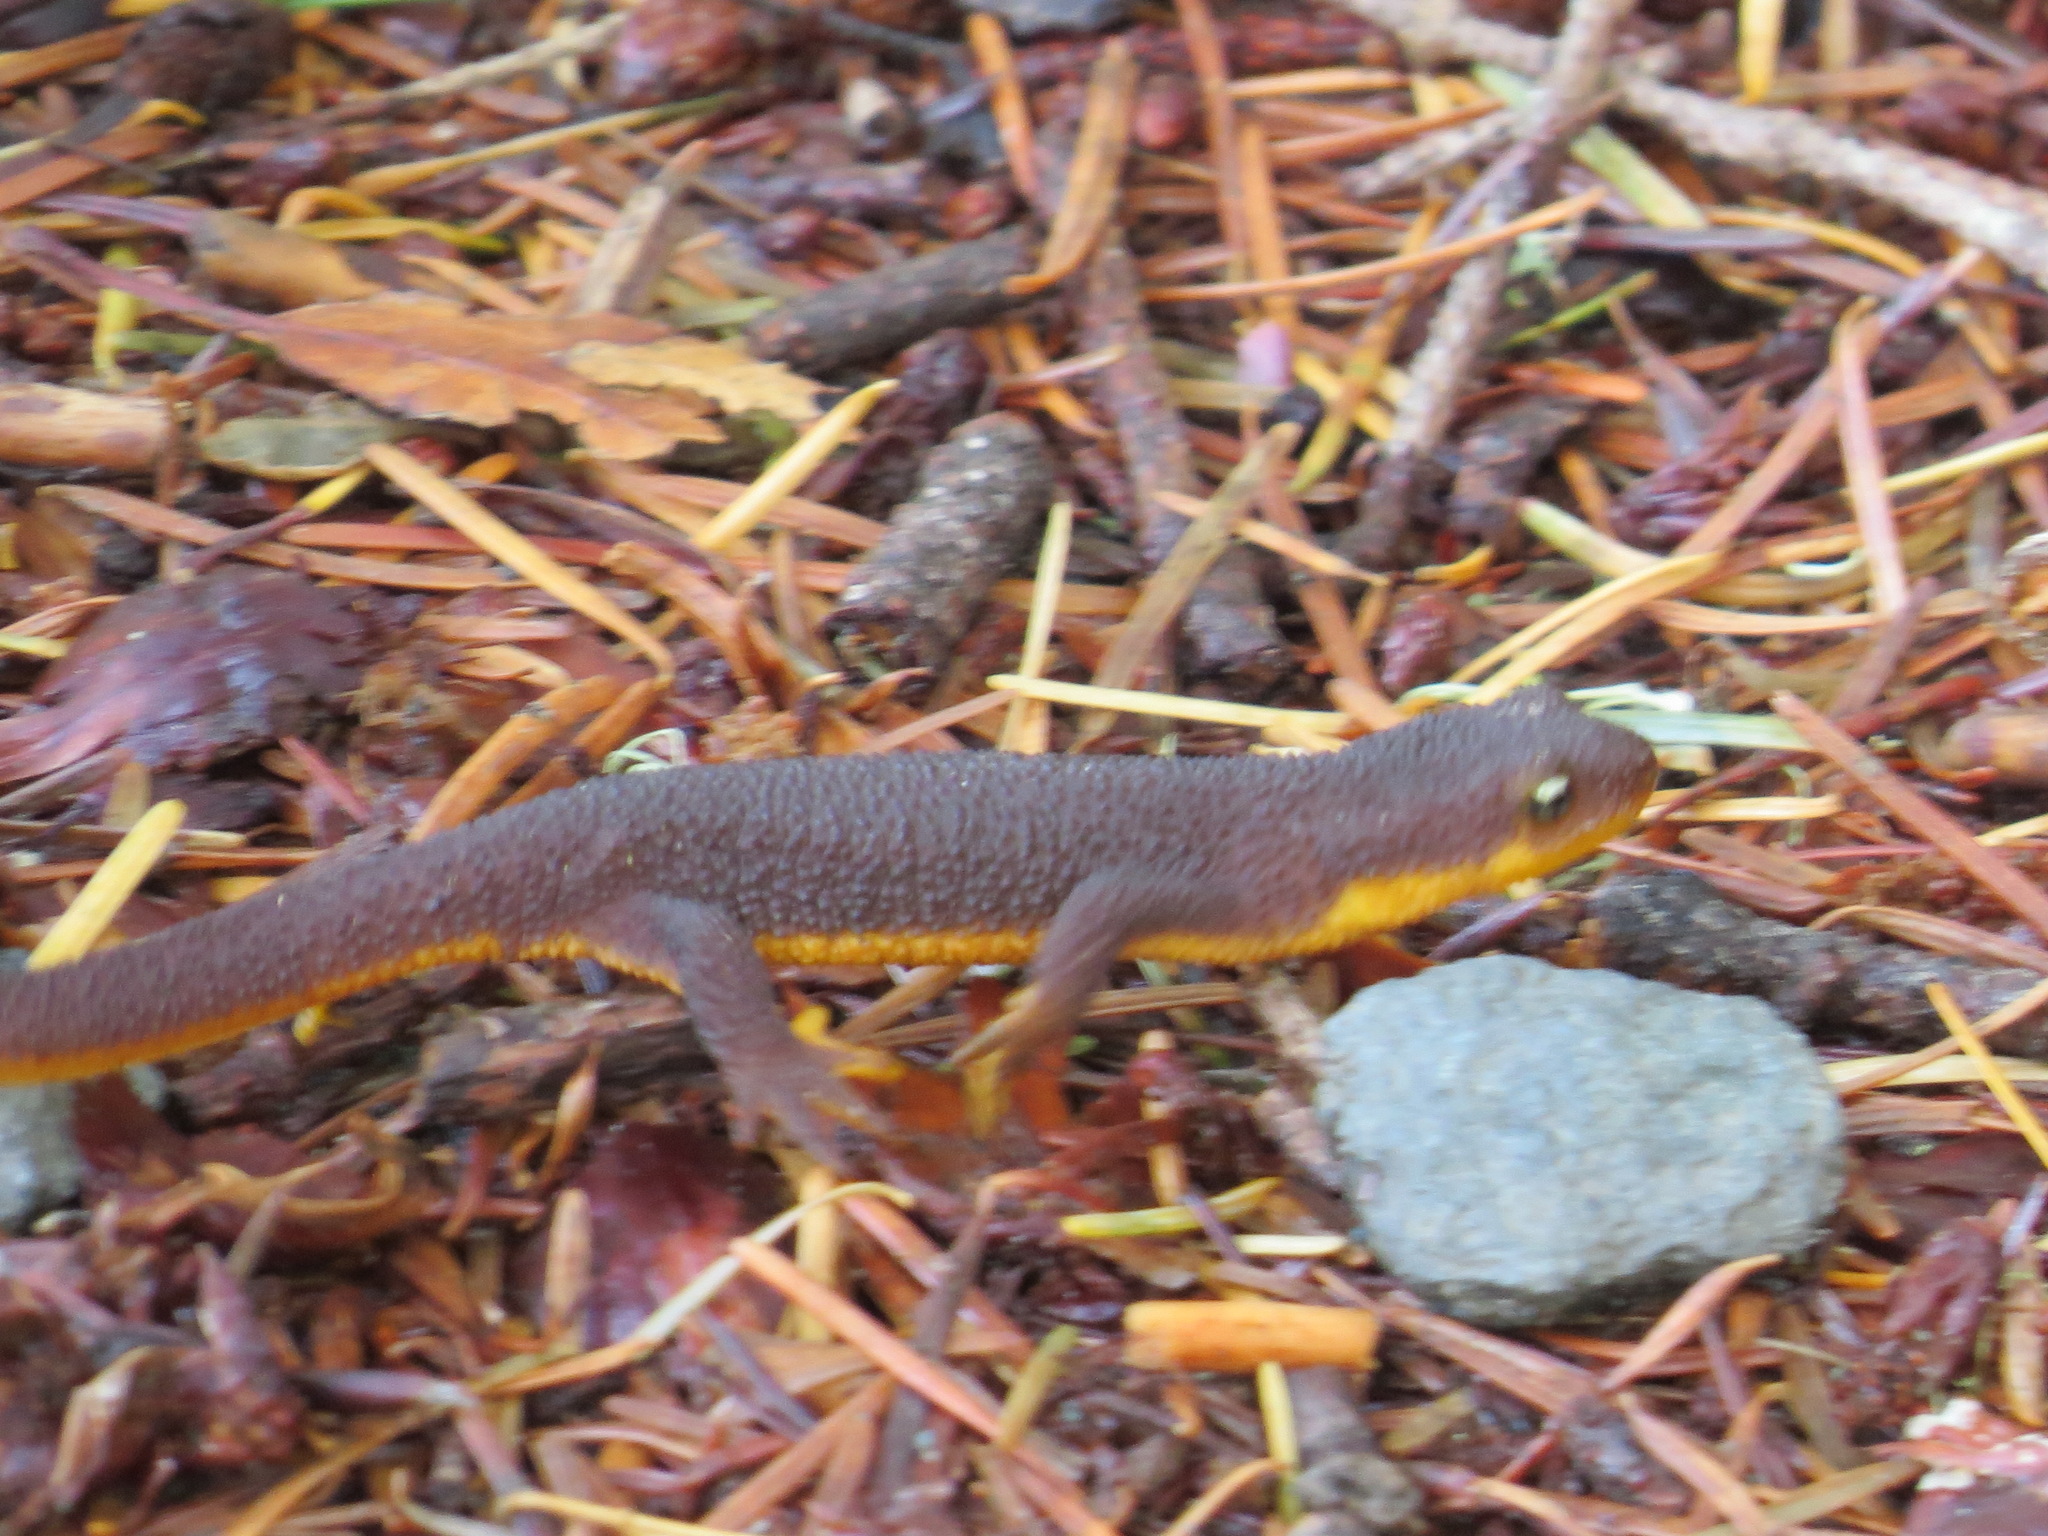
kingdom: Animalia
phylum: Chordata
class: Amphibia
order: Caudata
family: Salamandridae
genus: Taricha
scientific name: Taricha granulosa
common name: Roughskin newt
